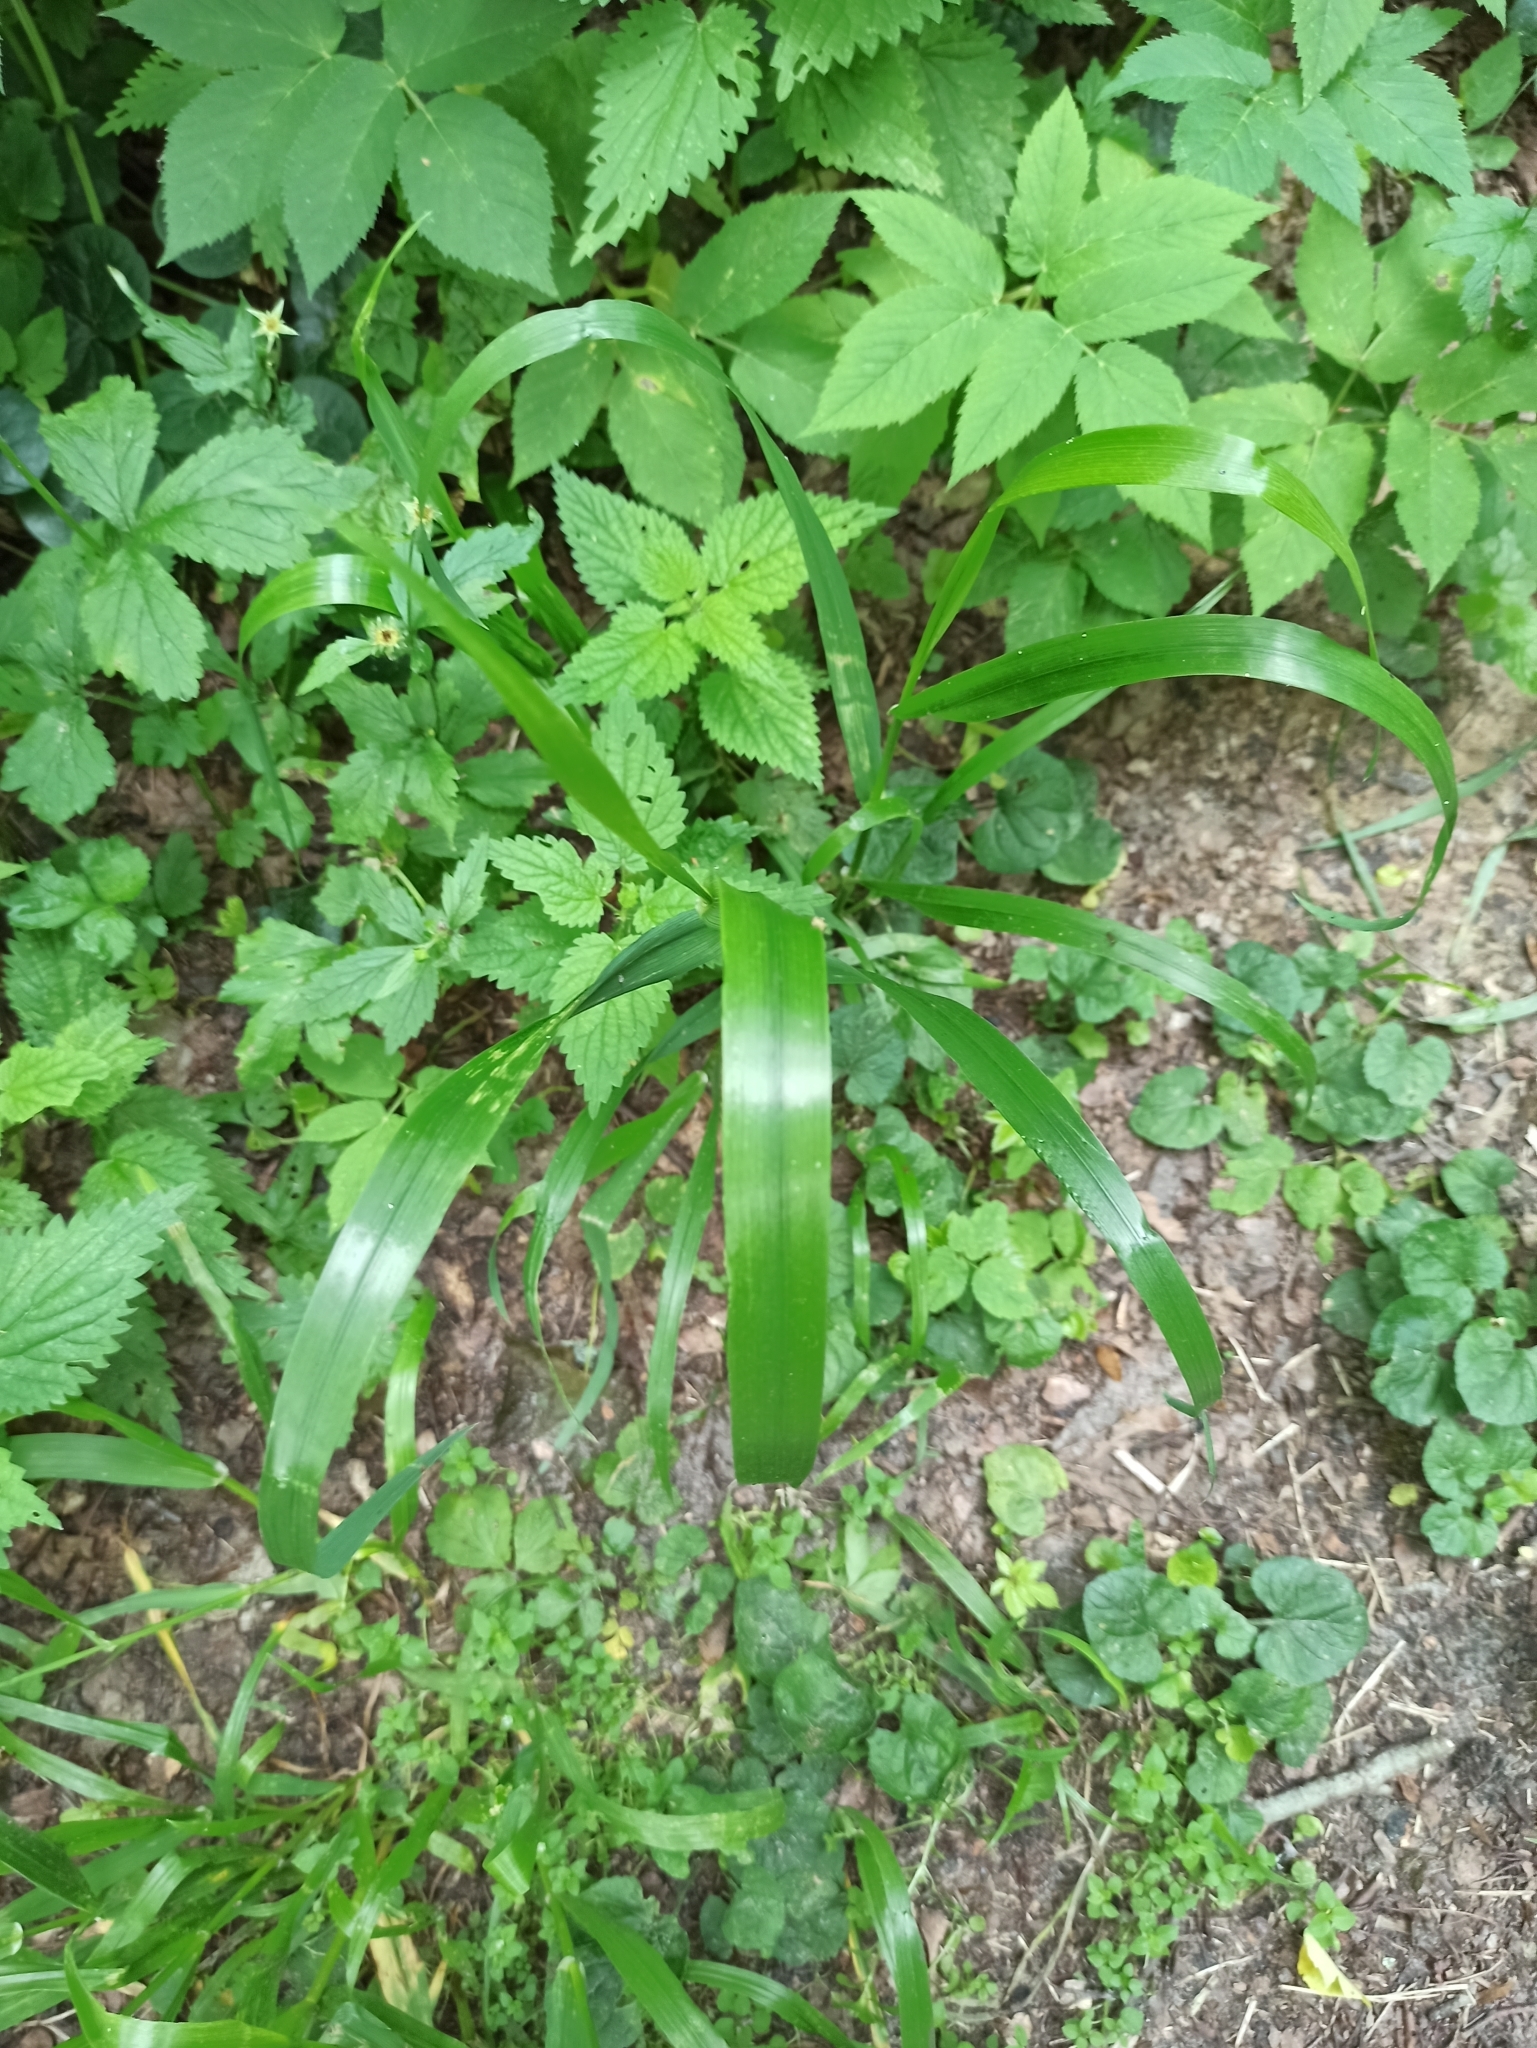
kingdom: Plantae
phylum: Tracheophyta
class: Liliopsida
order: Poales
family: Poaceae
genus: Lolium
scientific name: Lolium giganteum
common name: Giant fescue
